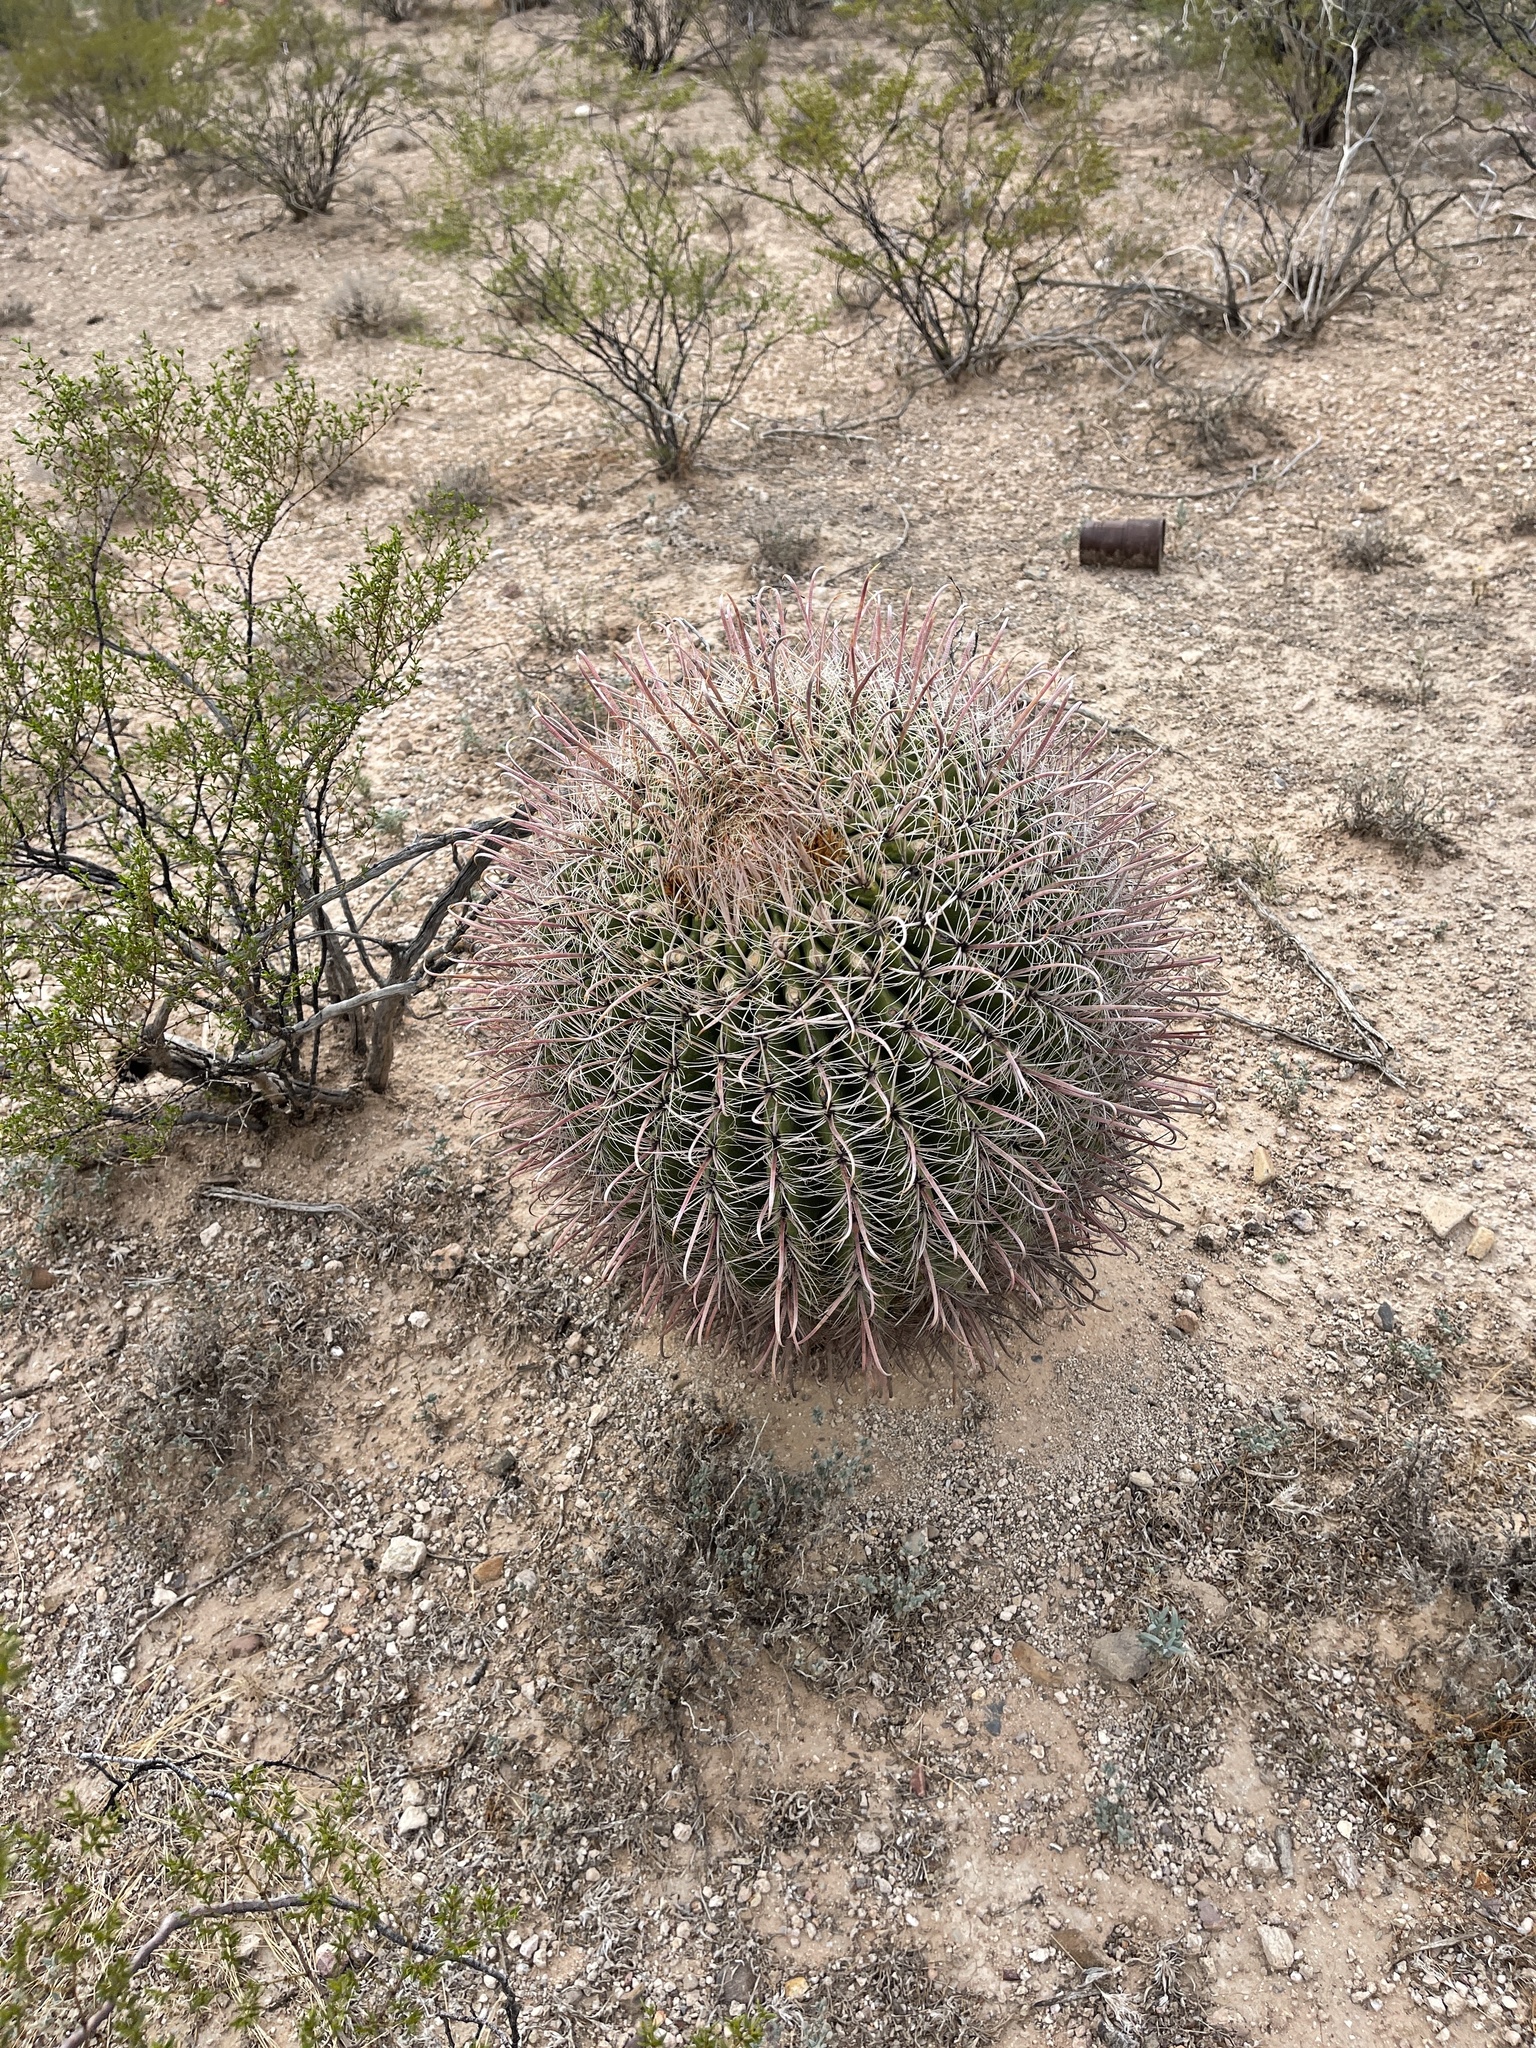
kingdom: Plantae
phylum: Tracheophyta
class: Magnoliopsida
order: Caryophyllales
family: Cactaceae
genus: Ferocactus
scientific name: Ferocactus wislizeni
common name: Candy barrel cactus
